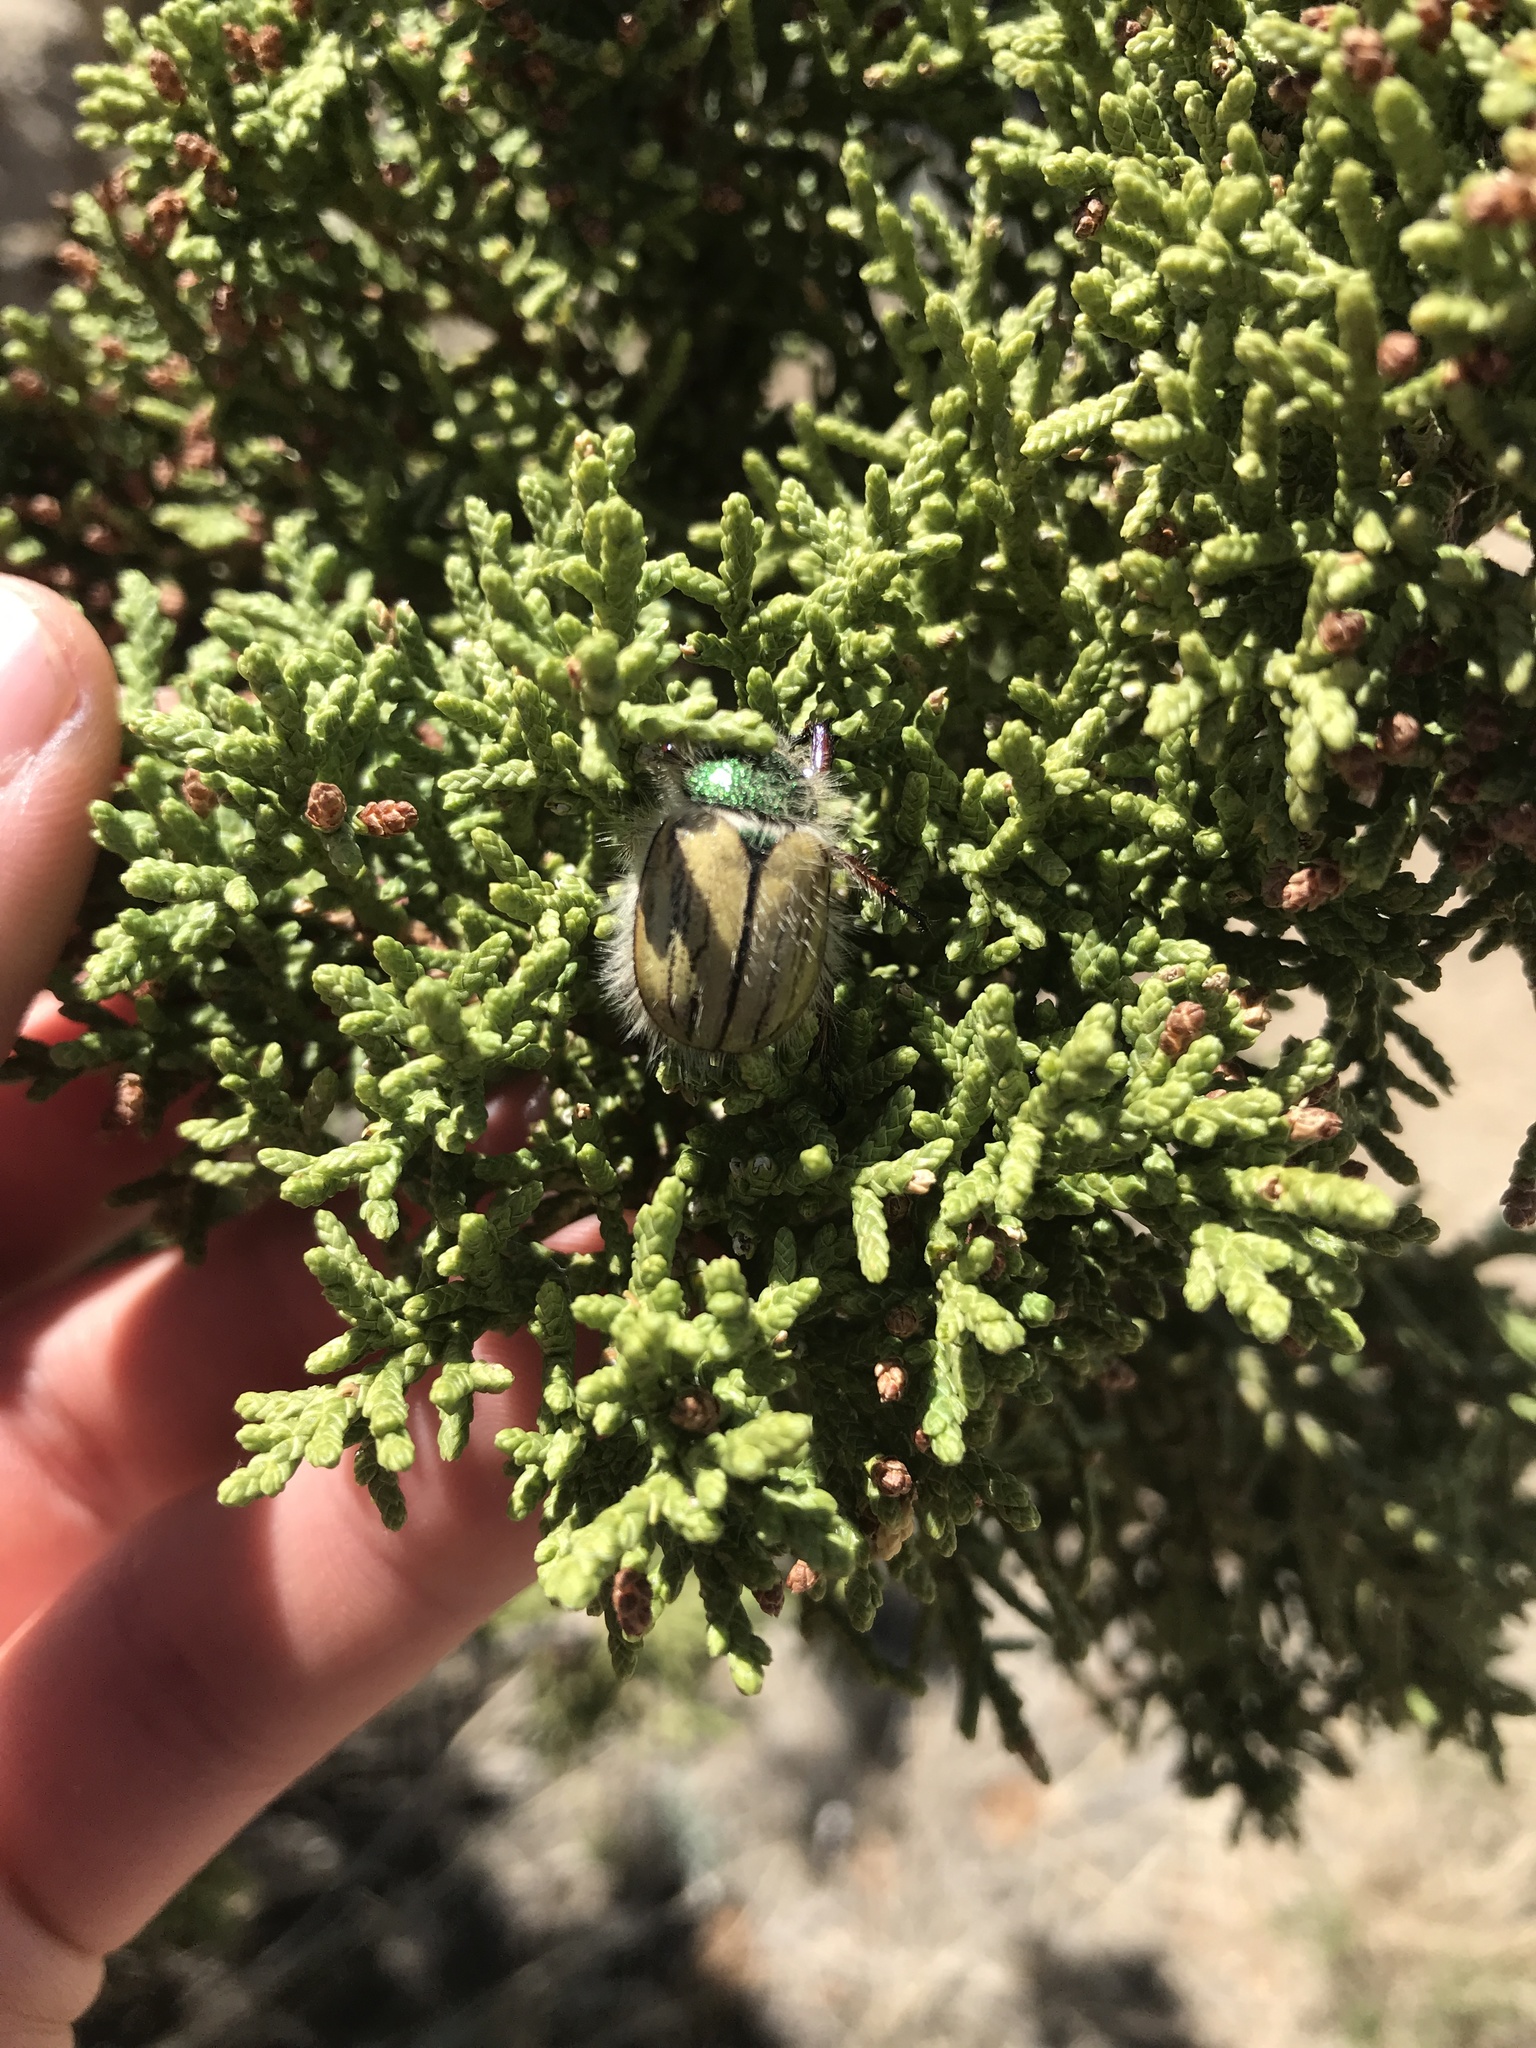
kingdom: Animalia
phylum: Arthropoda
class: Insecta
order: Coleoptera
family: Scarabaeidae
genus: Paracotalpa
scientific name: Paracotalpa puncticollis
